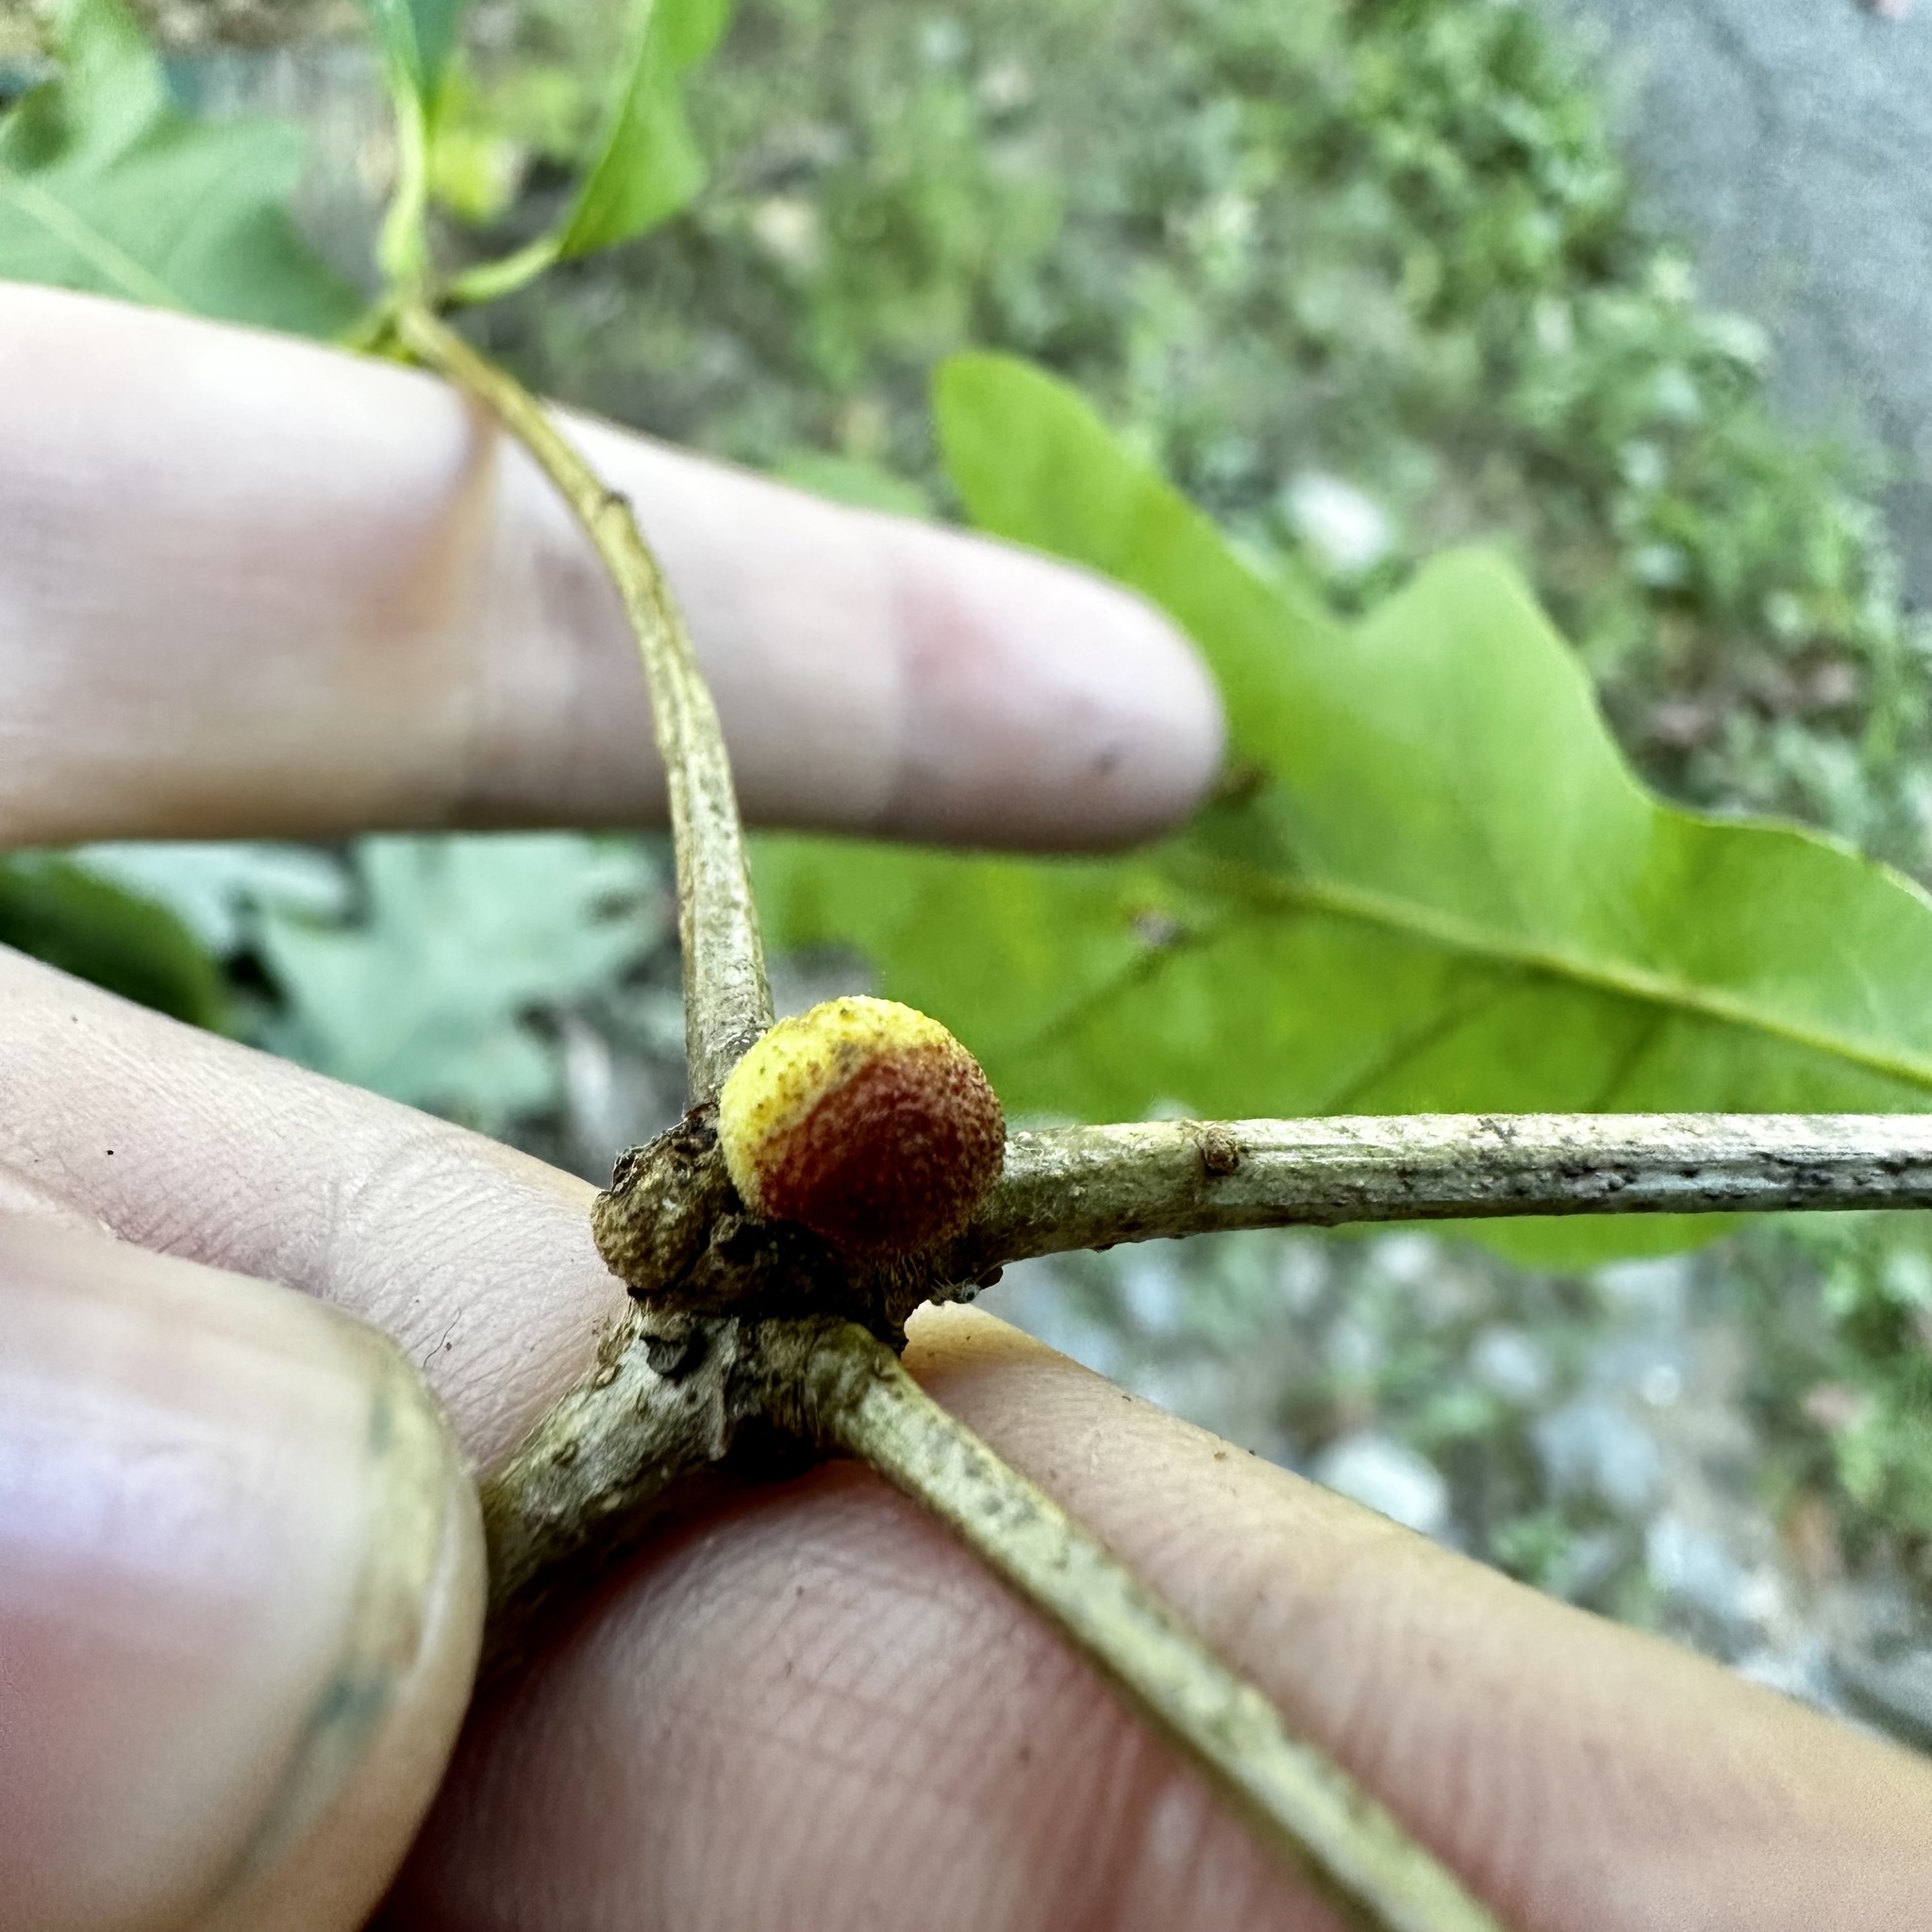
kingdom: Animalia
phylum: Arthropoda
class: Insecta
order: Hymenoptera
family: Cynipidae
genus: Disholcaspis
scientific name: Disholcaspis quercusglobulus
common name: Round bullet gall wasp
